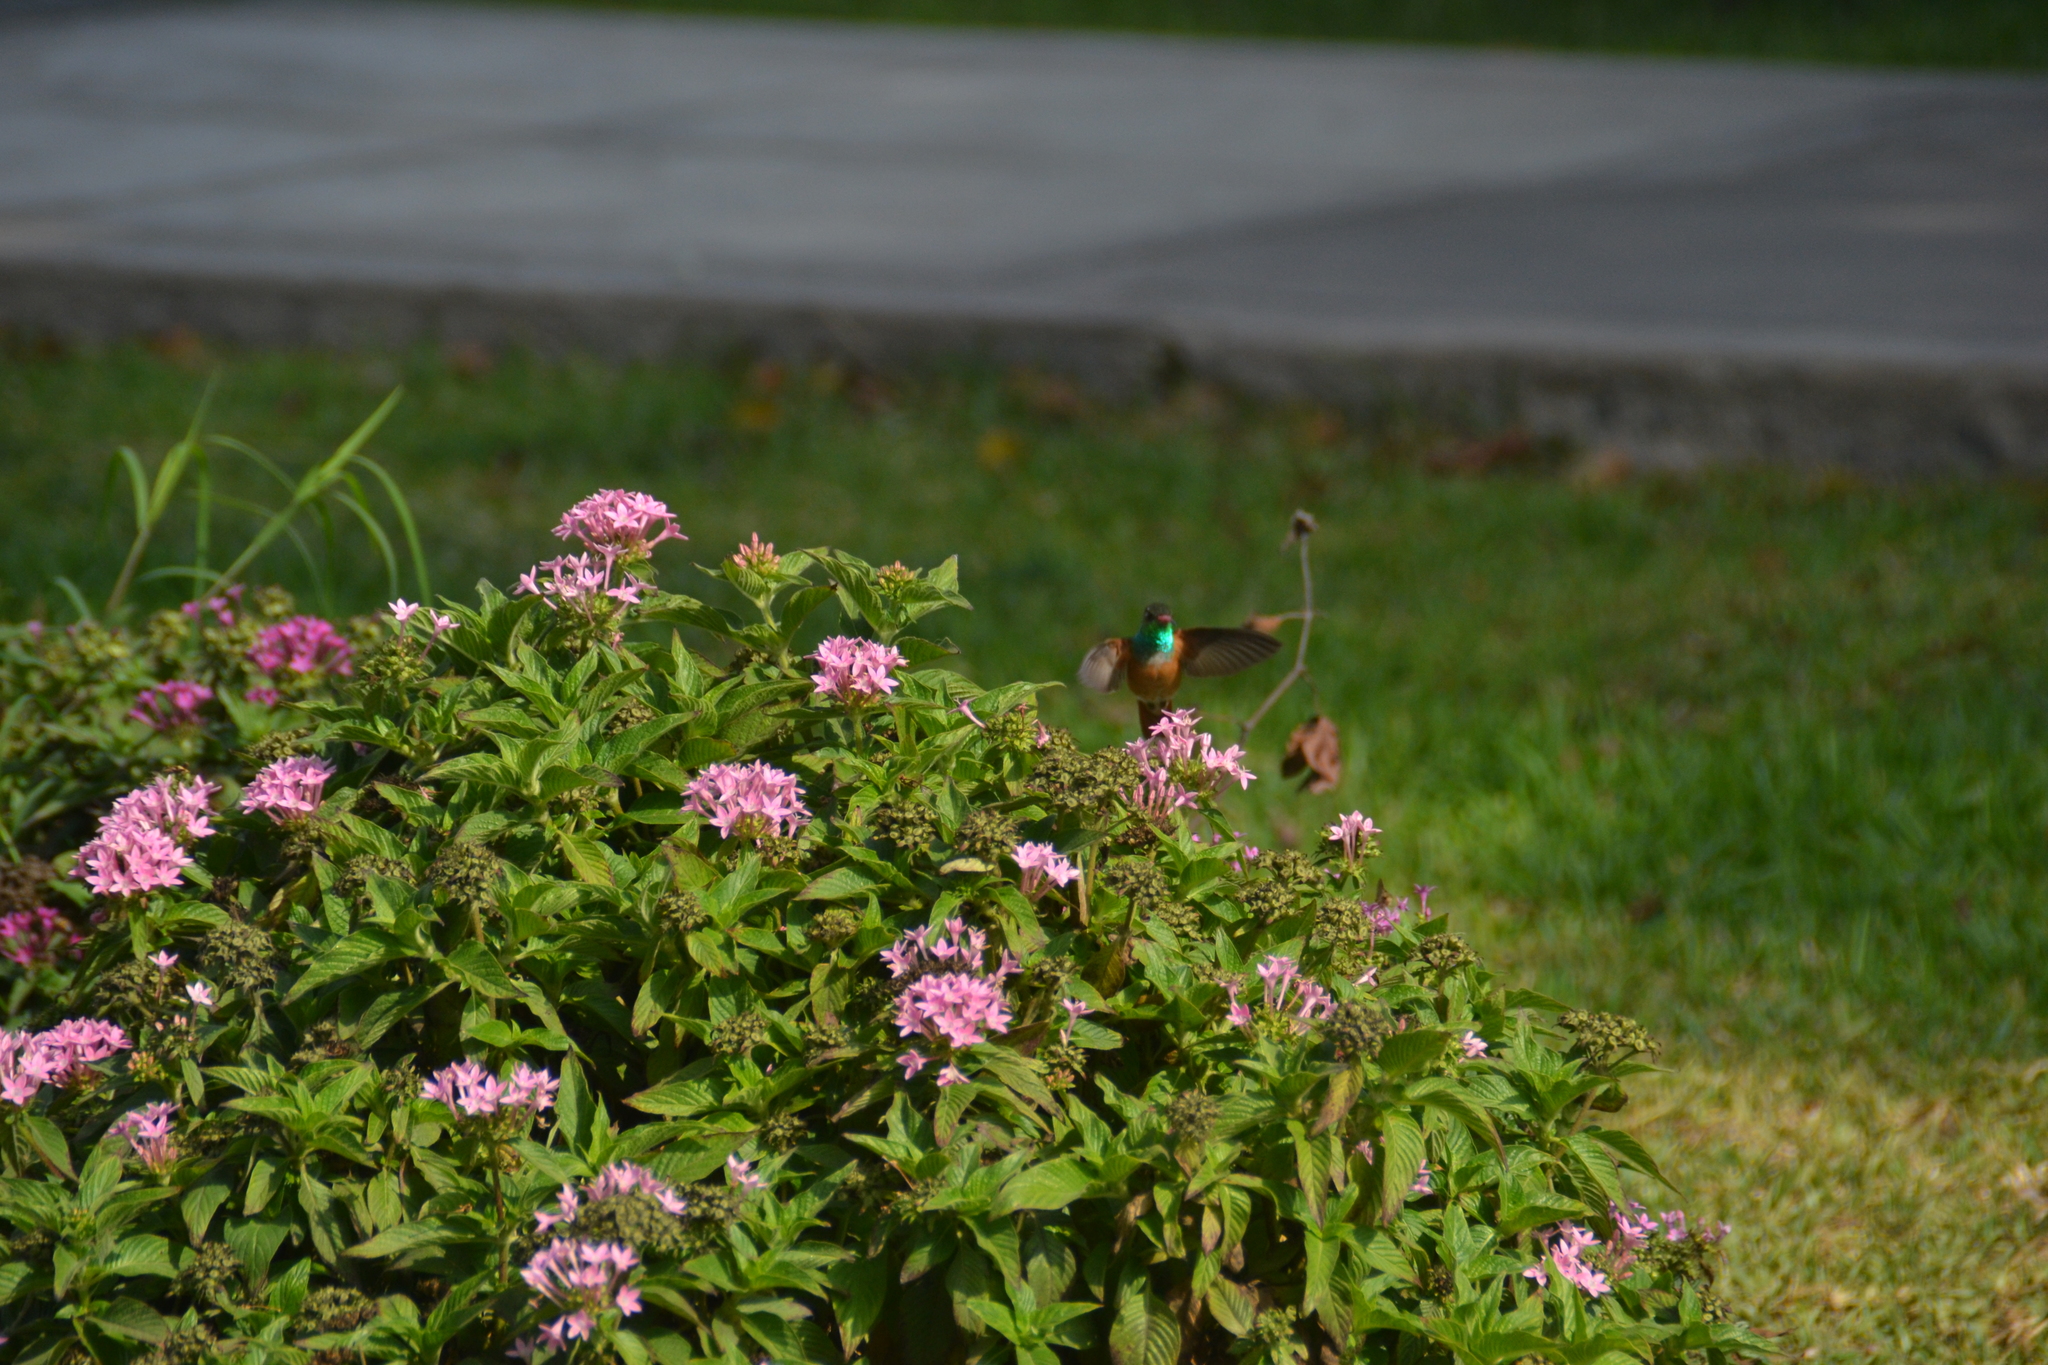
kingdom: Animalia
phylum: Chordata
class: Aves
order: Apodiformes
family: Trochilidae
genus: Amazilis
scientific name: Amazilis amazilia
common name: Amazilia hummingbird
